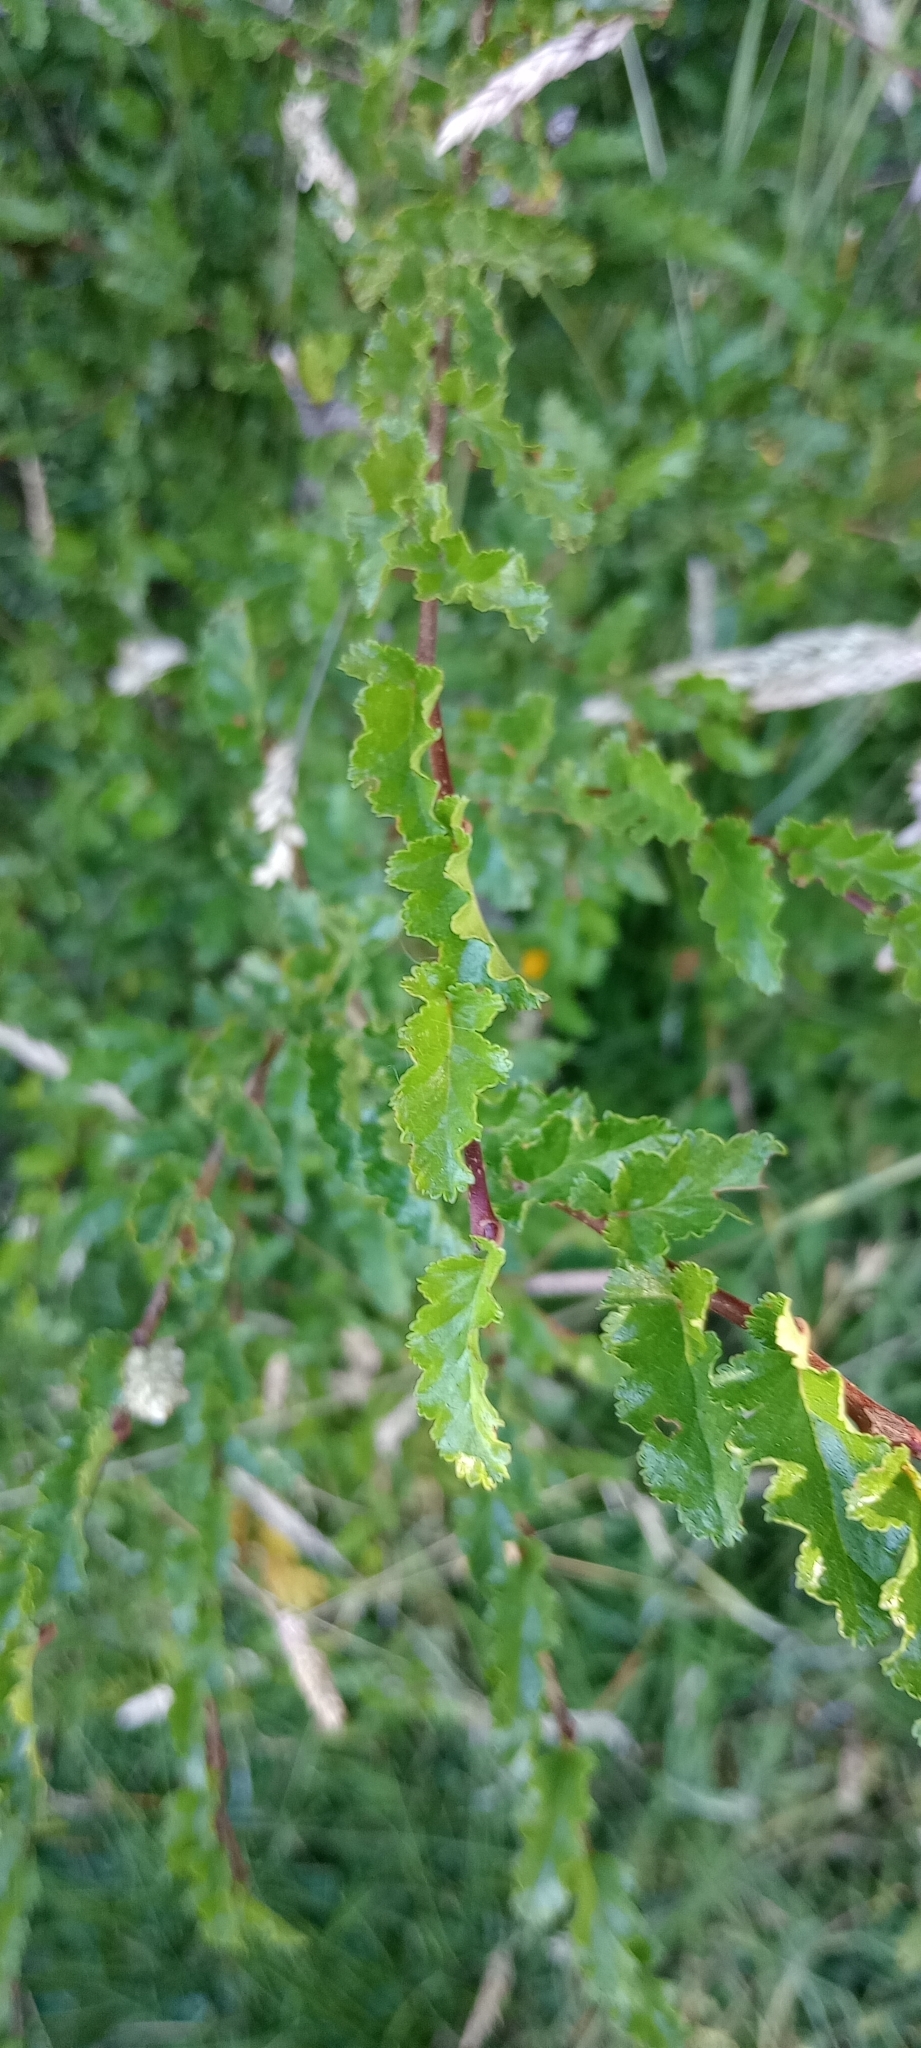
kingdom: Plantae
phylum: Tracheophyta
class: Magnoliopsida
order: Fagales
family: Nothofagaceae
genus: Nothofagus
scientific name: Nothofagus antarctica
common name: Antarctic beech
